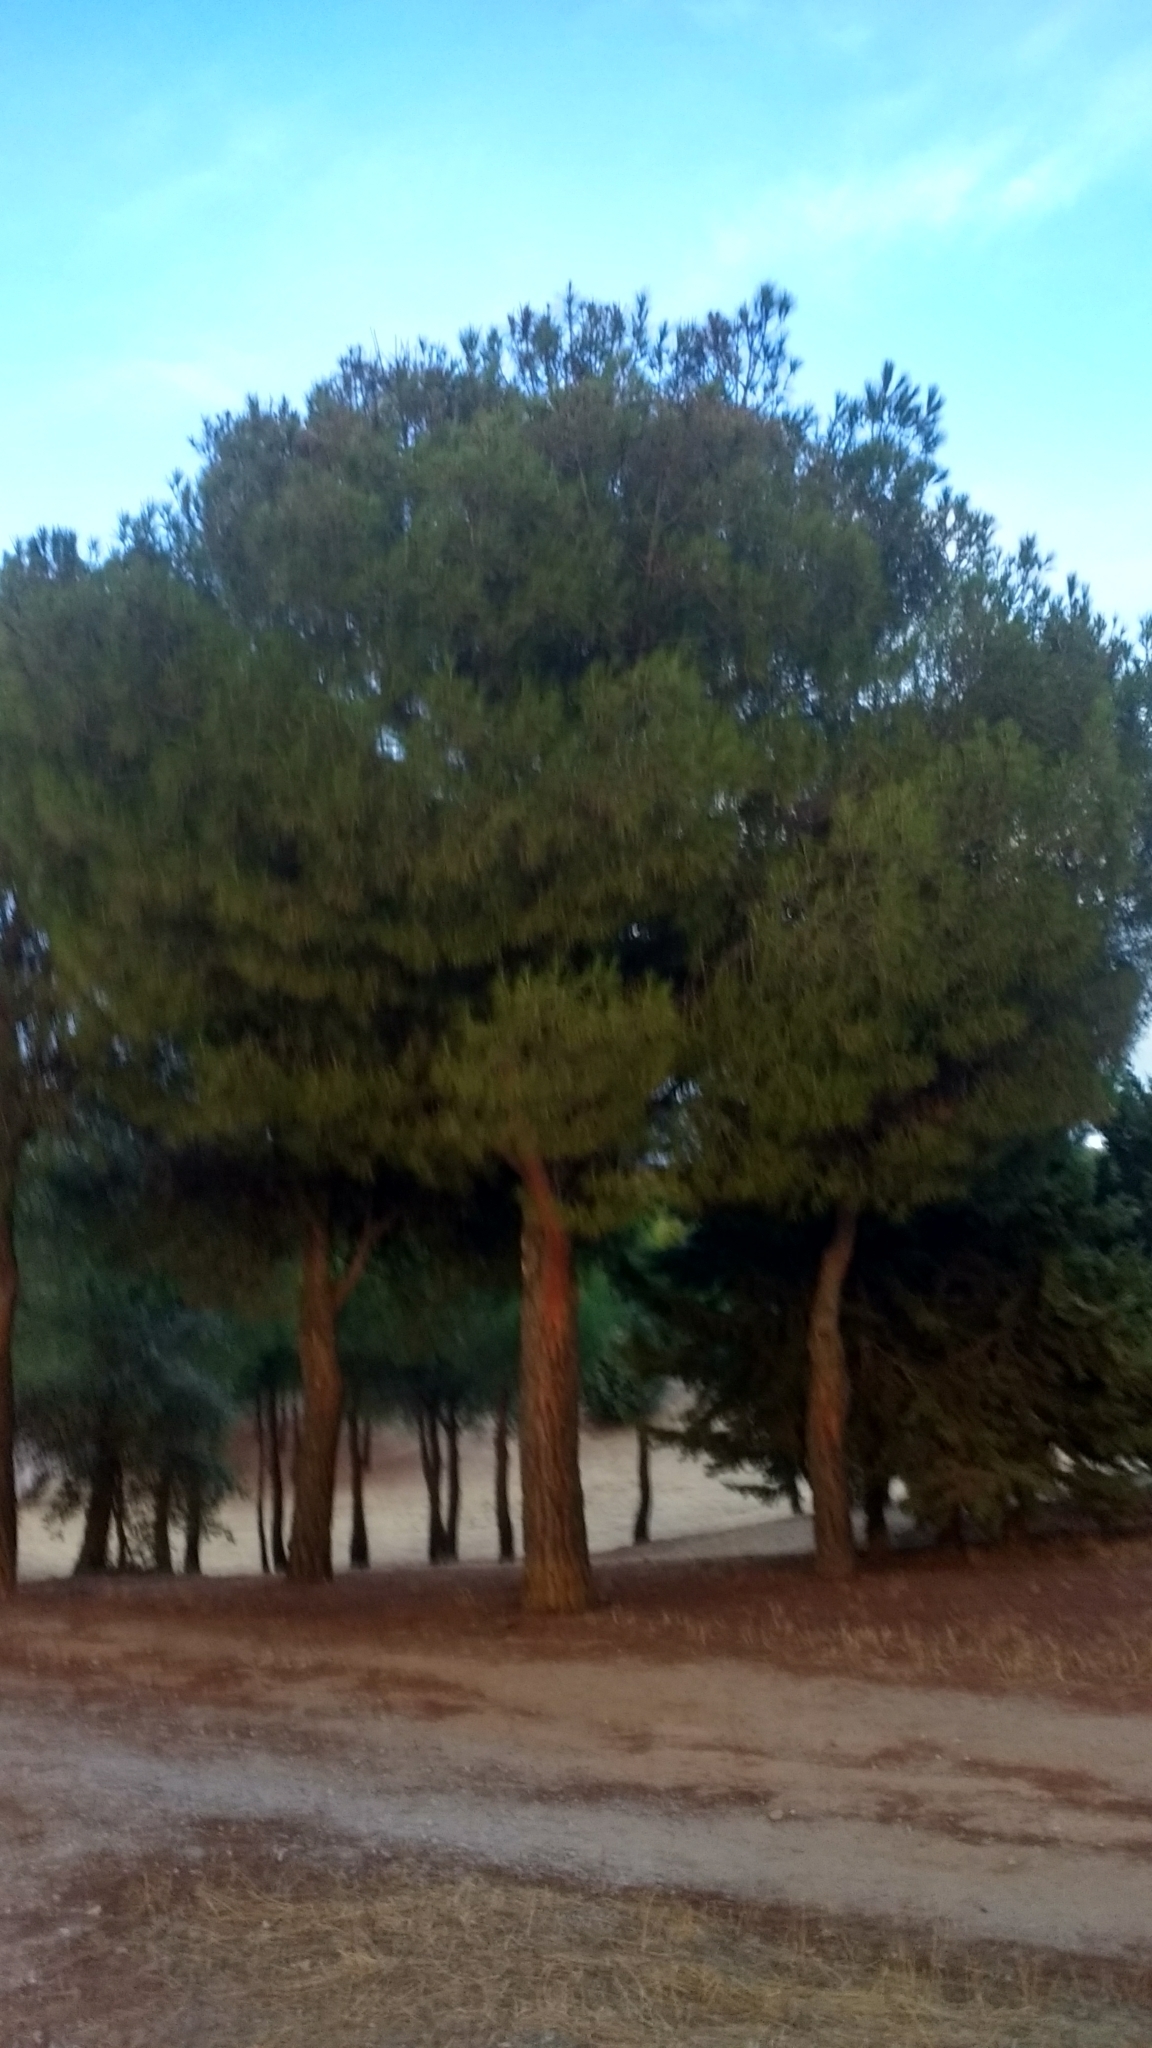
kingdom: Plantae
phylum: Tracheophyta
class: Pinopsida
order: Pinales
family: Pinaceae
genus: Pinus
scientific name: Pinus pinea
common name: Italian stone pine
